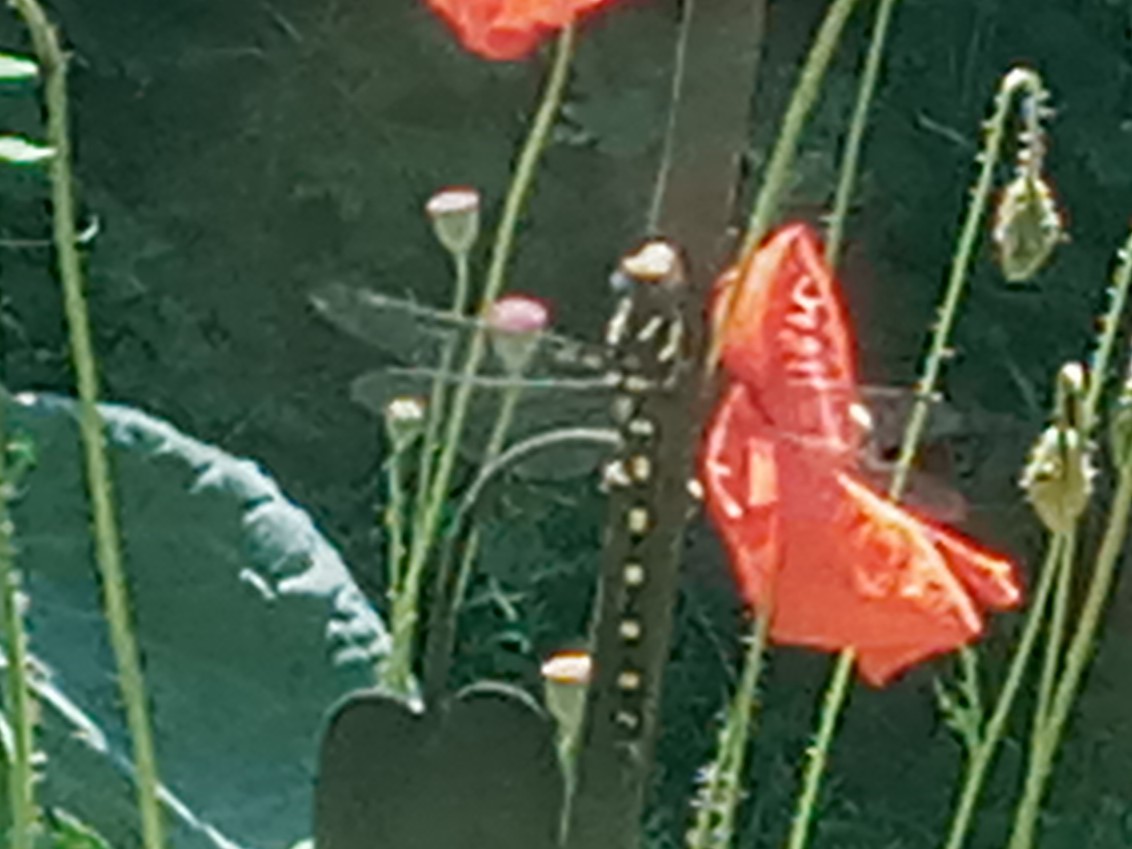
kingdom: Animalia
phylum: Arthropoda
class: Insecta
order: Odonata
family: Cordulegastridae
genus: Cordulegaster
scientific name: Cordulegaster dorsalis
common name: Pacific spiketail
